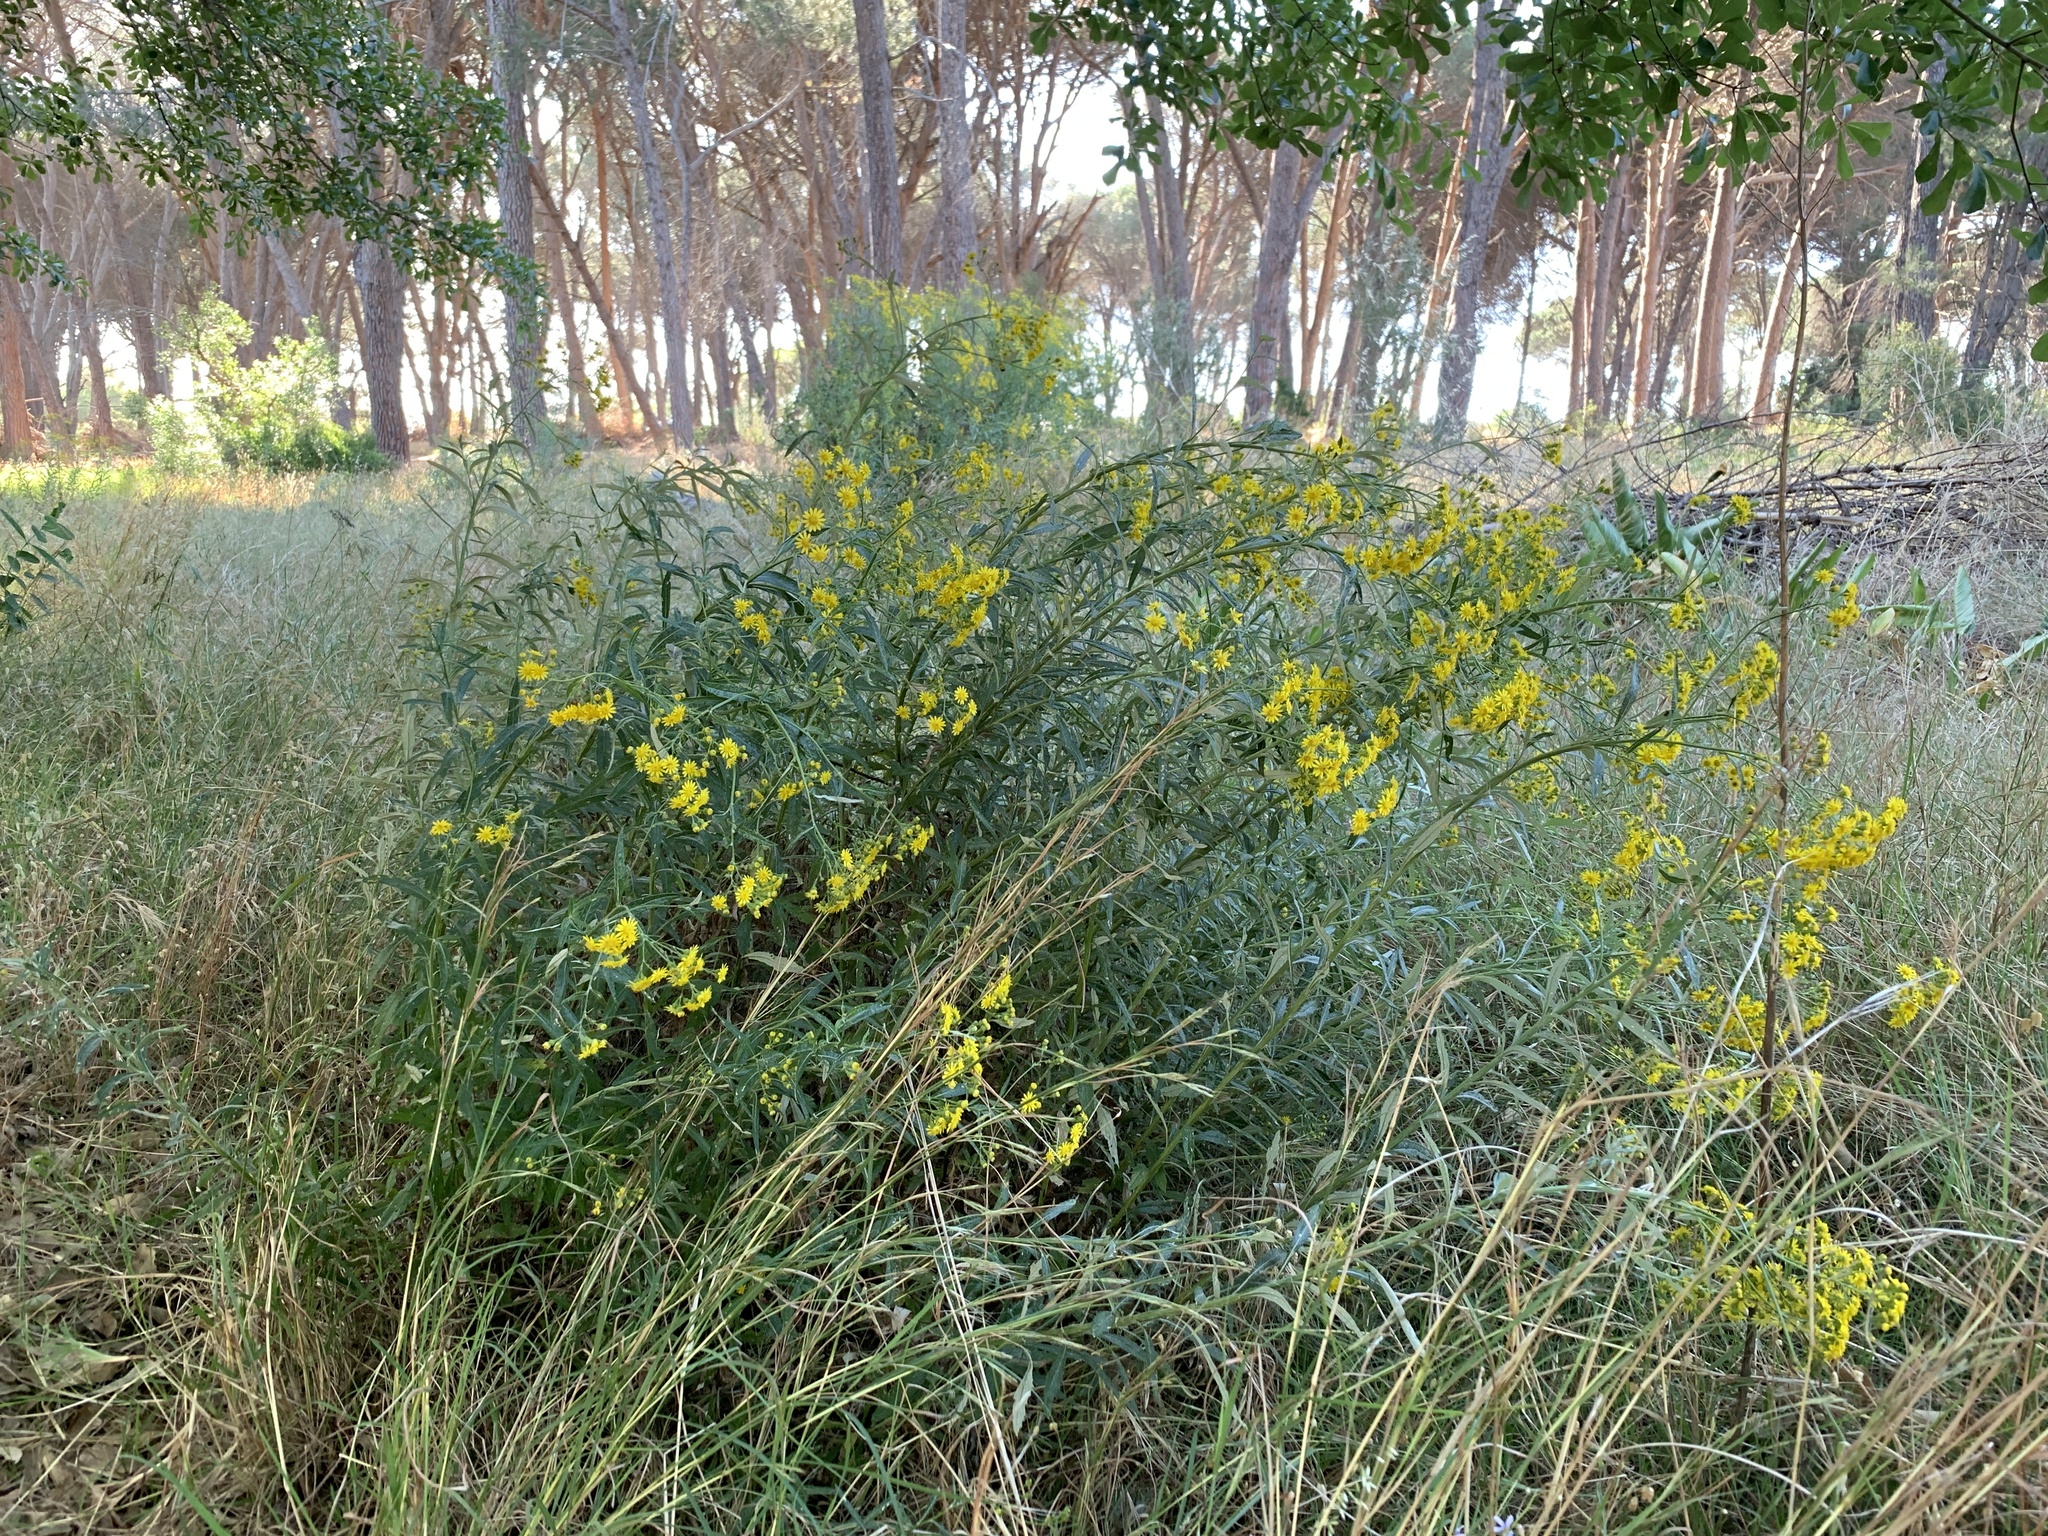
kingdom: Plantae
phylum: Tracheophyta
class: Magnoliopsida
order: Asterales
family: Asteraceae
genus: Senecio
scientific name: Senecio pterophorus
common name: Shoddy ragwort
